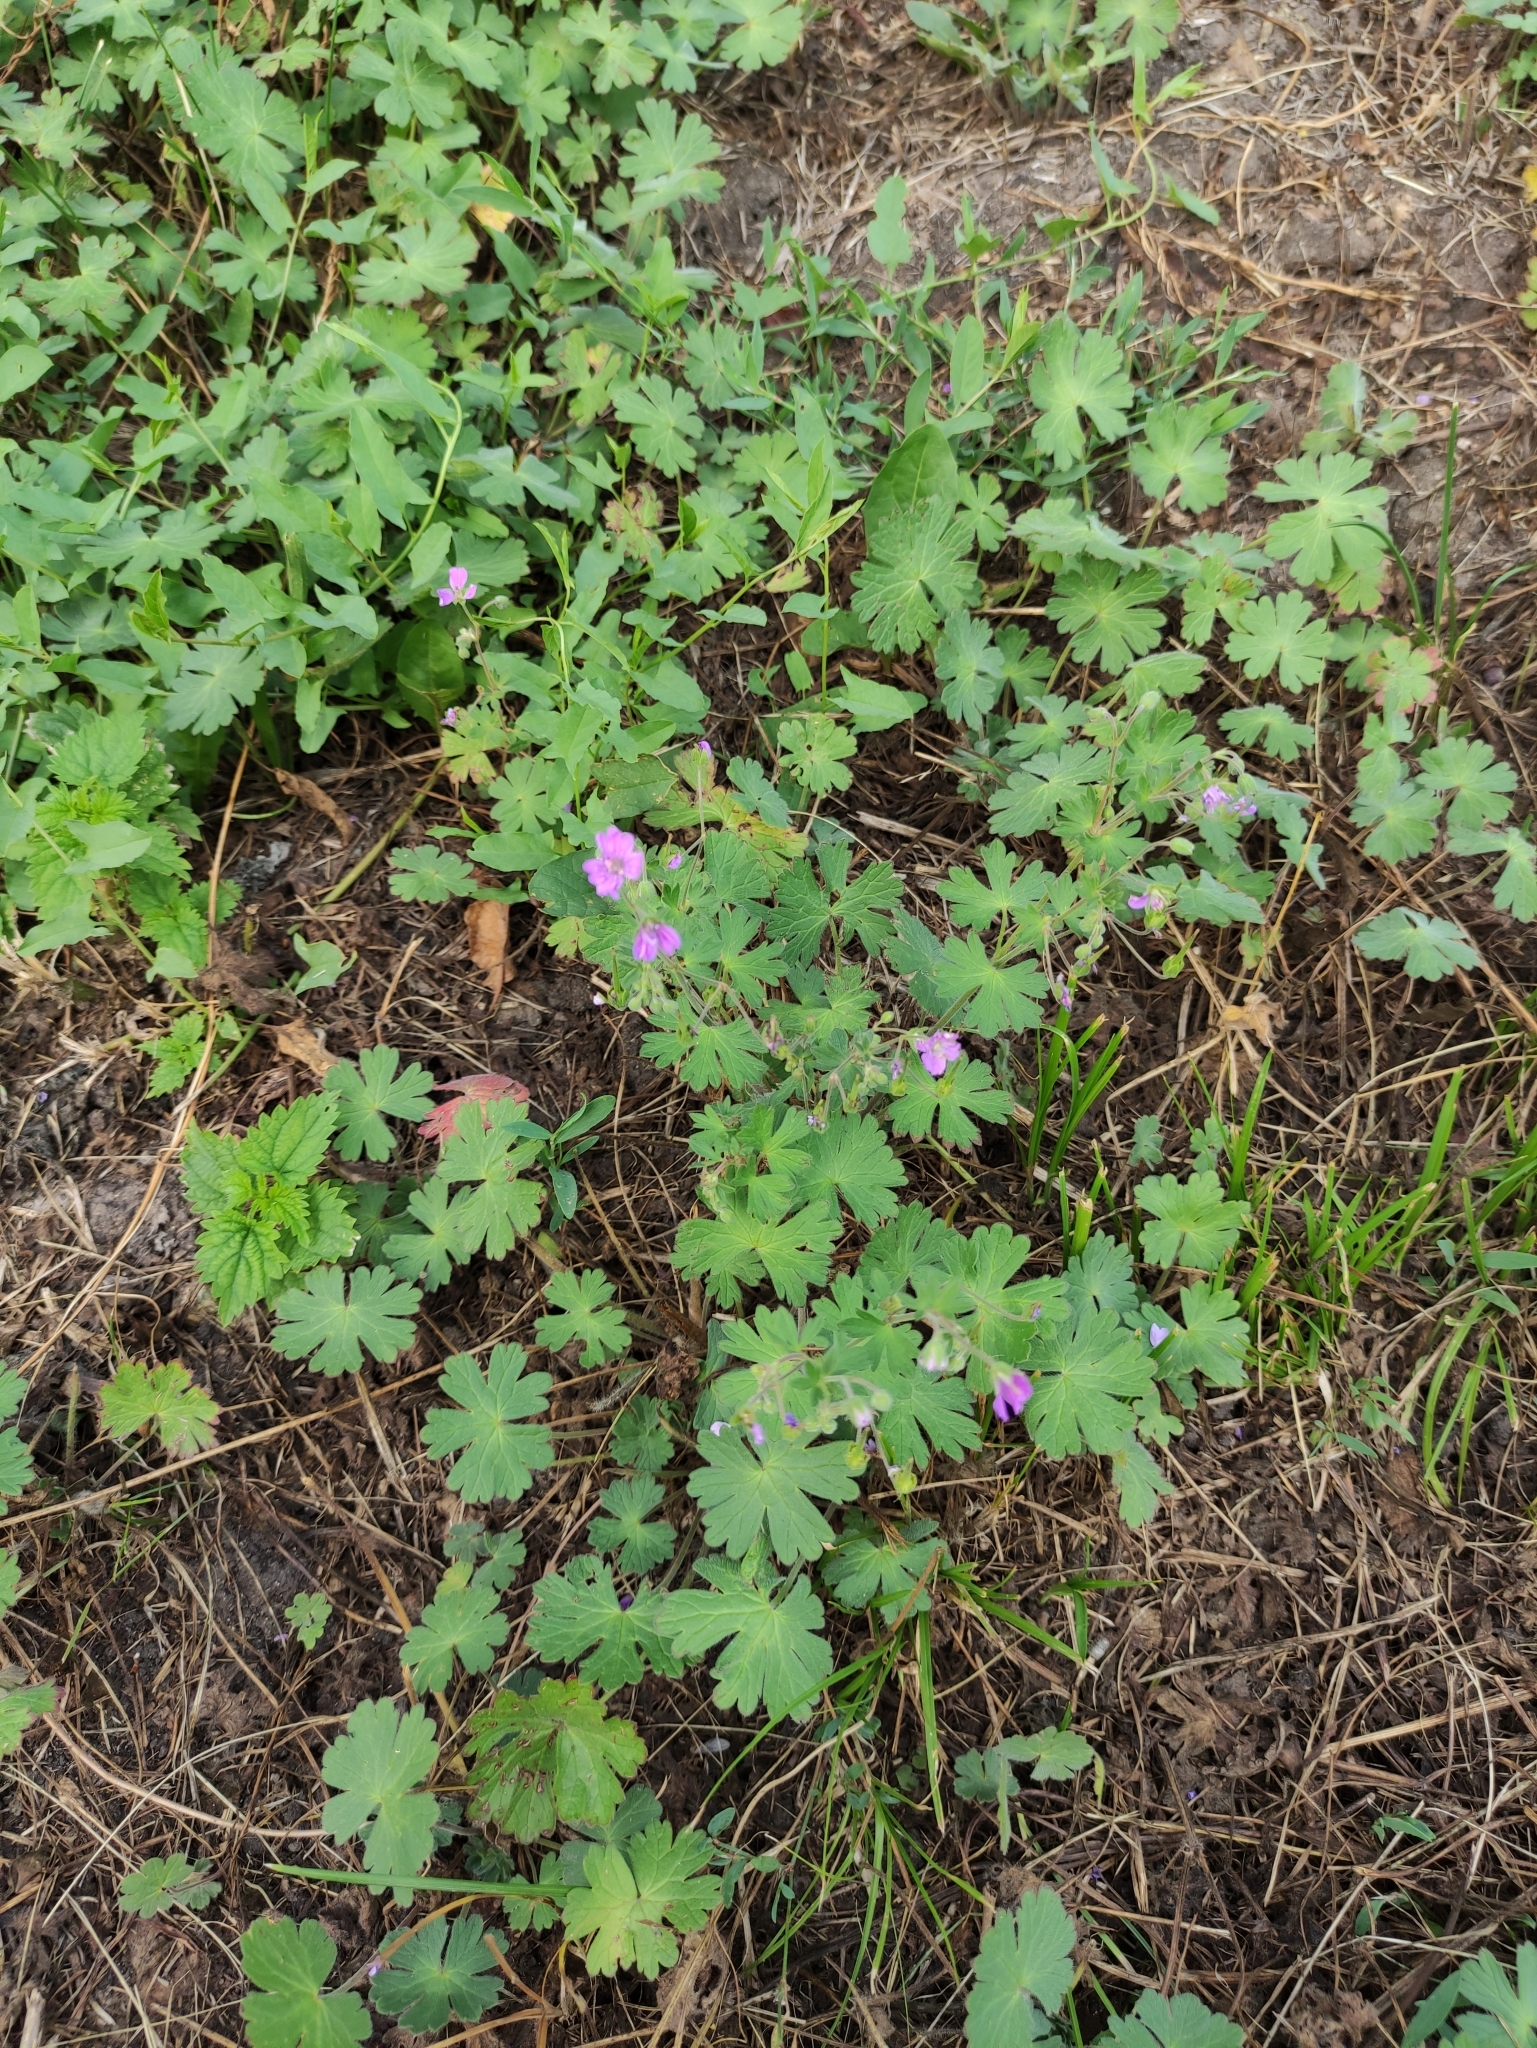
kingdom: Plantae
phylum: Tracheophyta
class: Magnoliopsida
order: Geraniales
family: Geraniaceae
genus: Geranium
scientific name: Geranium pyrenaicum
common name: Hedgerow crane's-bill
